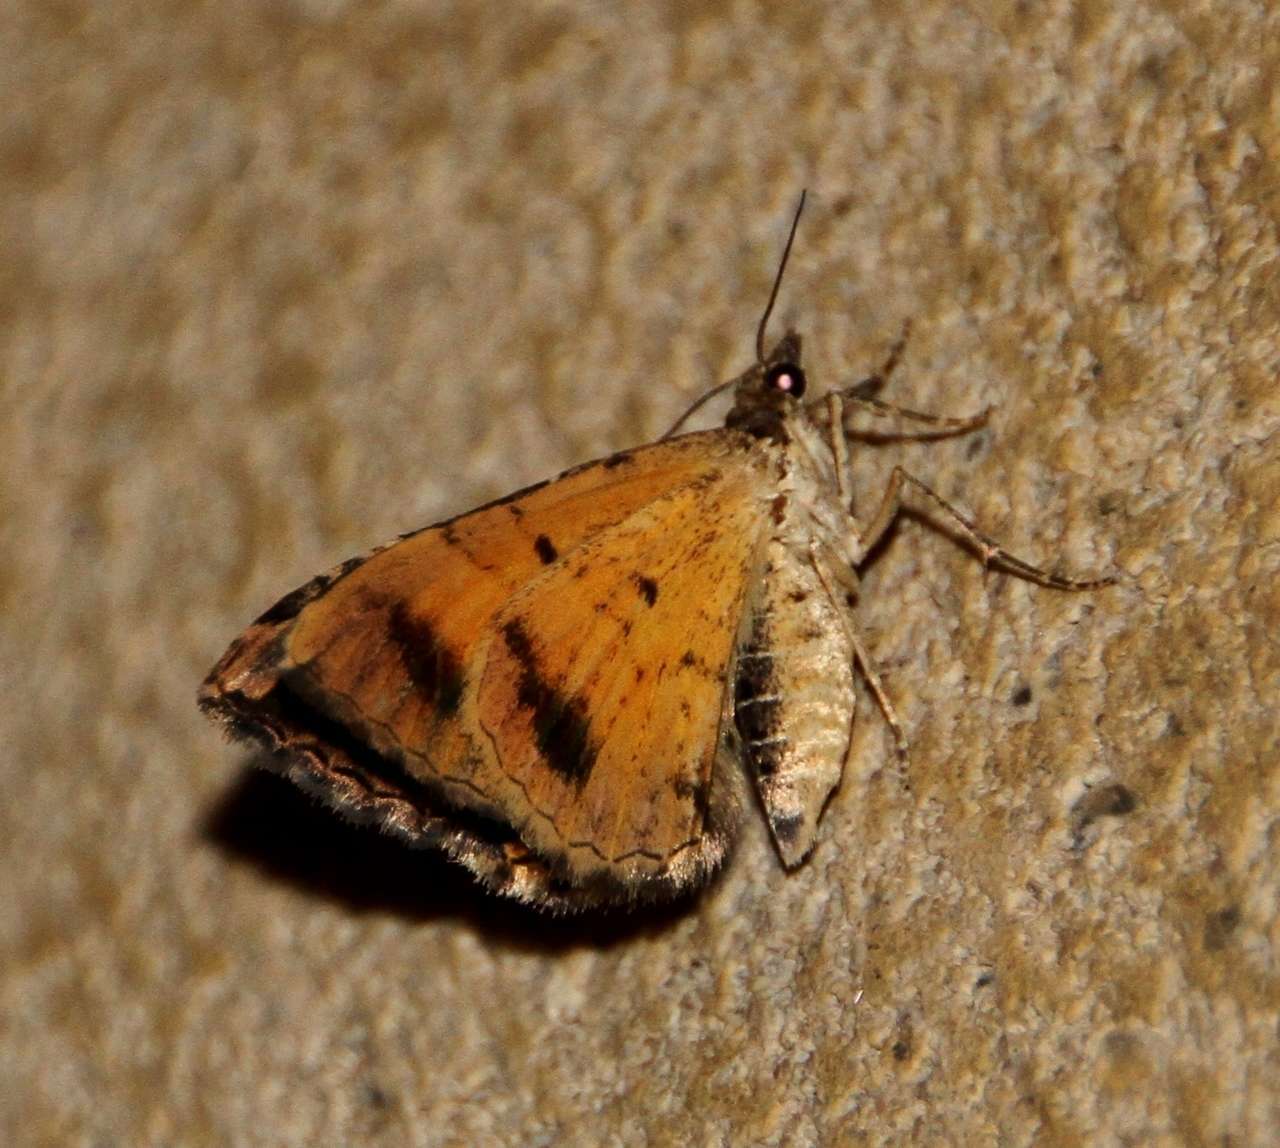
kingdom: Animalia
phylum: Arthropoda
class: Insecta
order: Lepidoptera
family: Geometridae
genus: Chrysolarentia
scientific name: Chrysolarentia lucidulata
